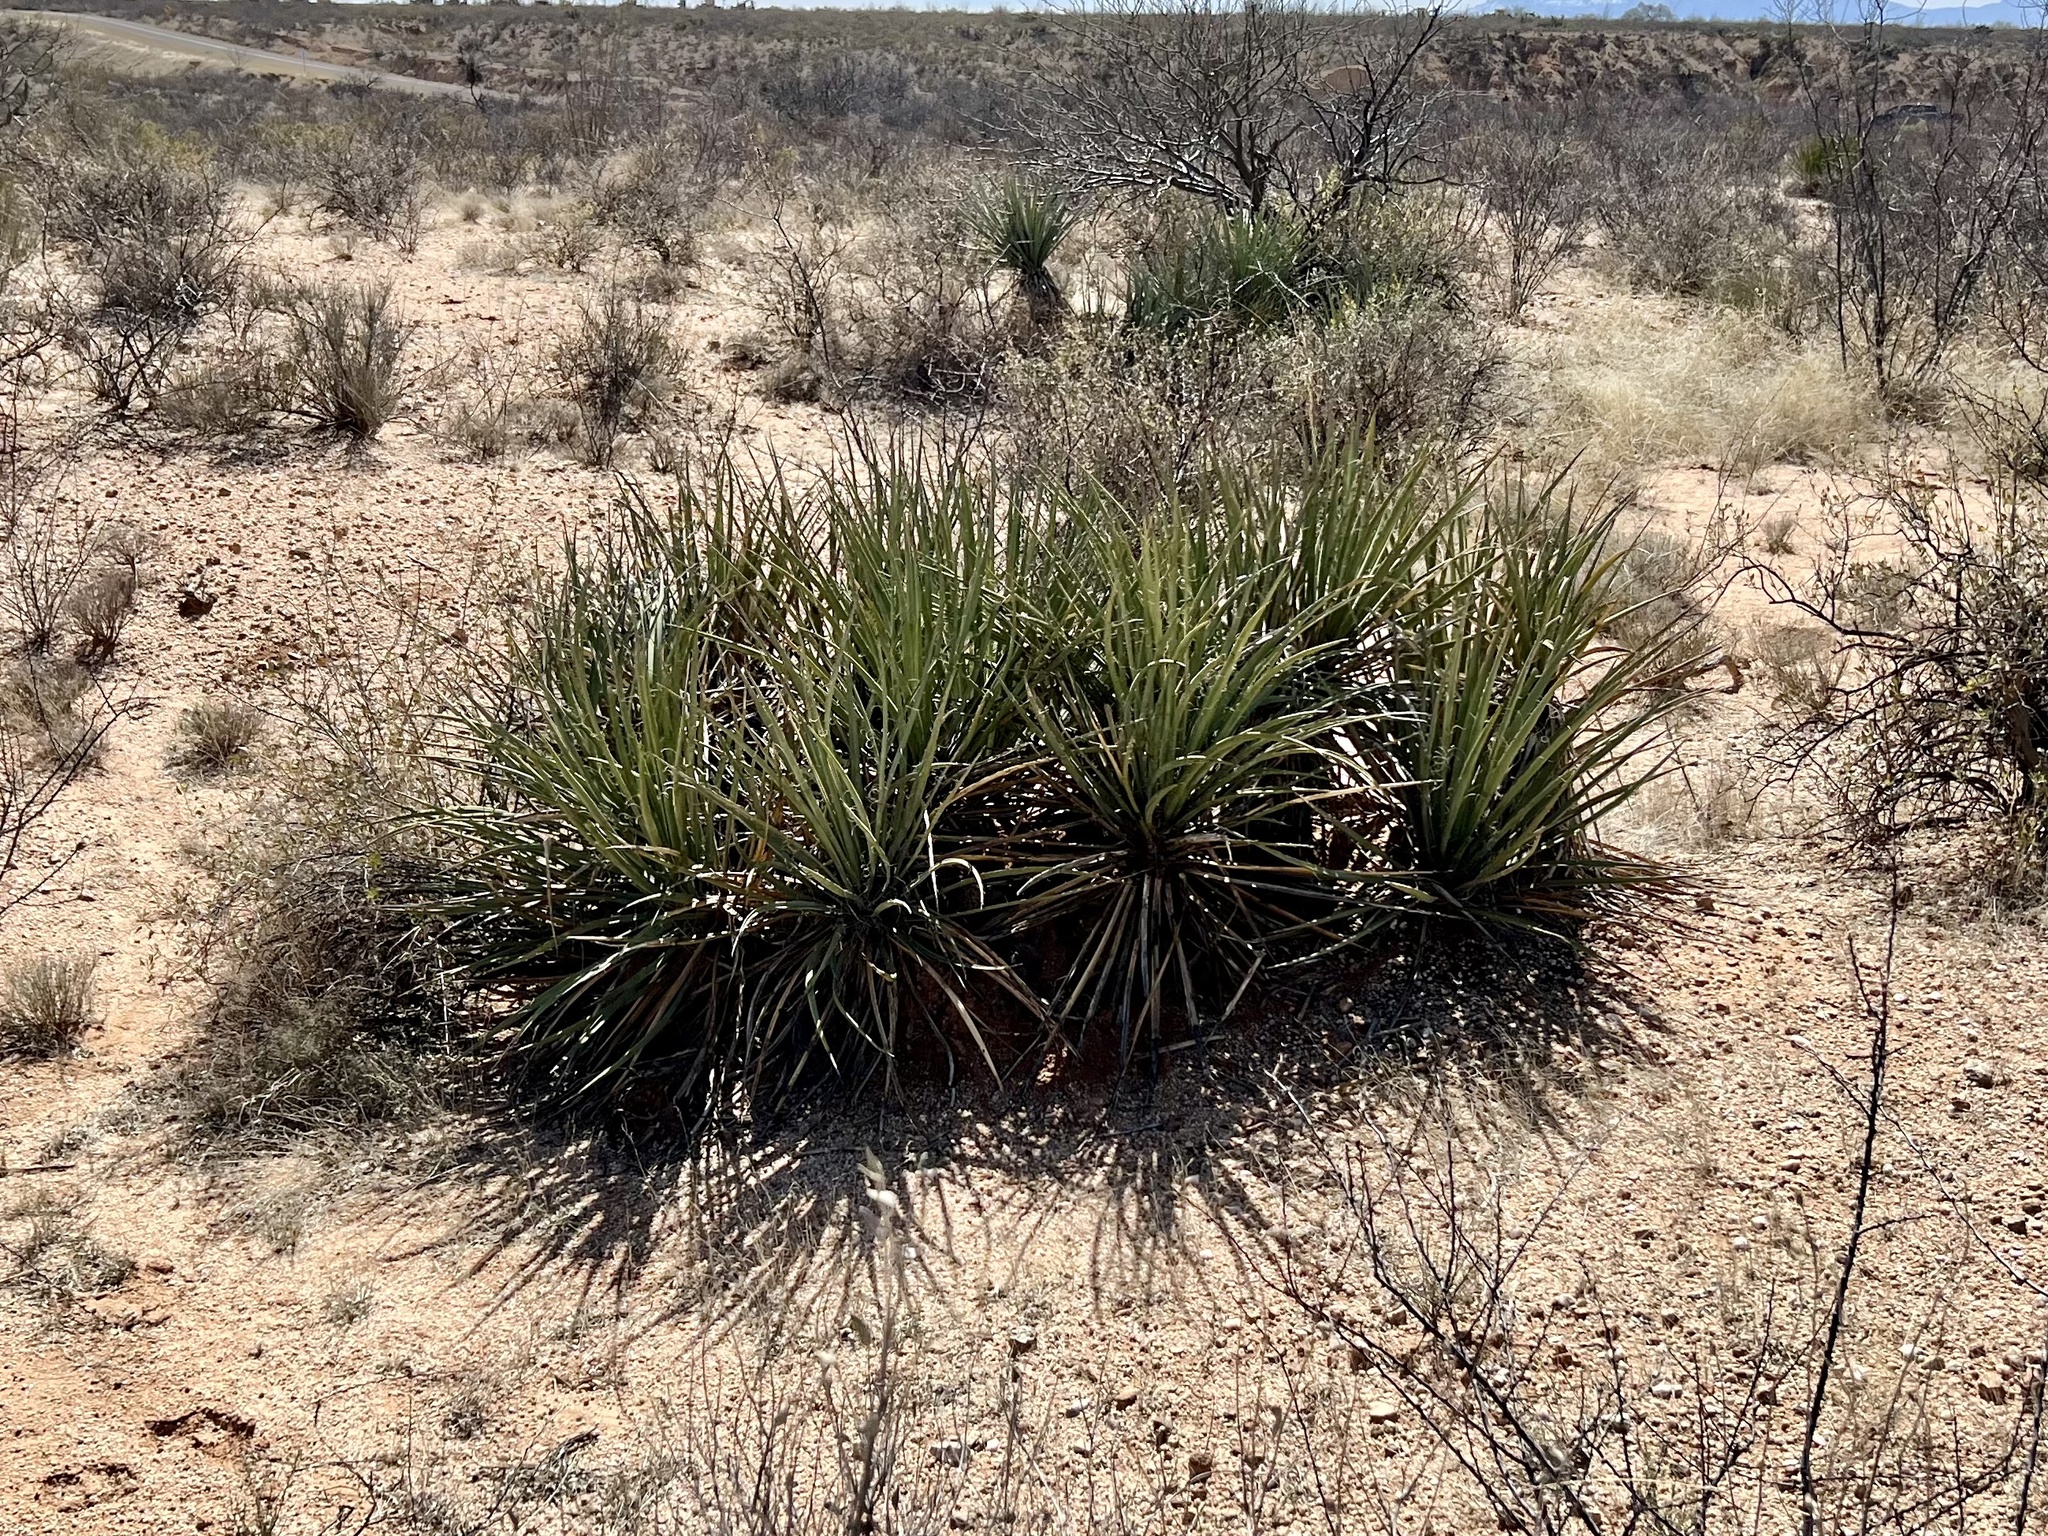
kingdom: Plantae
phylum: Tracheophyta
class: Liliopsida
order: Asparagales
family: Asparagaceae
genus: Yucca
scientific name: Yucca baccata
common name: Banana yucca
